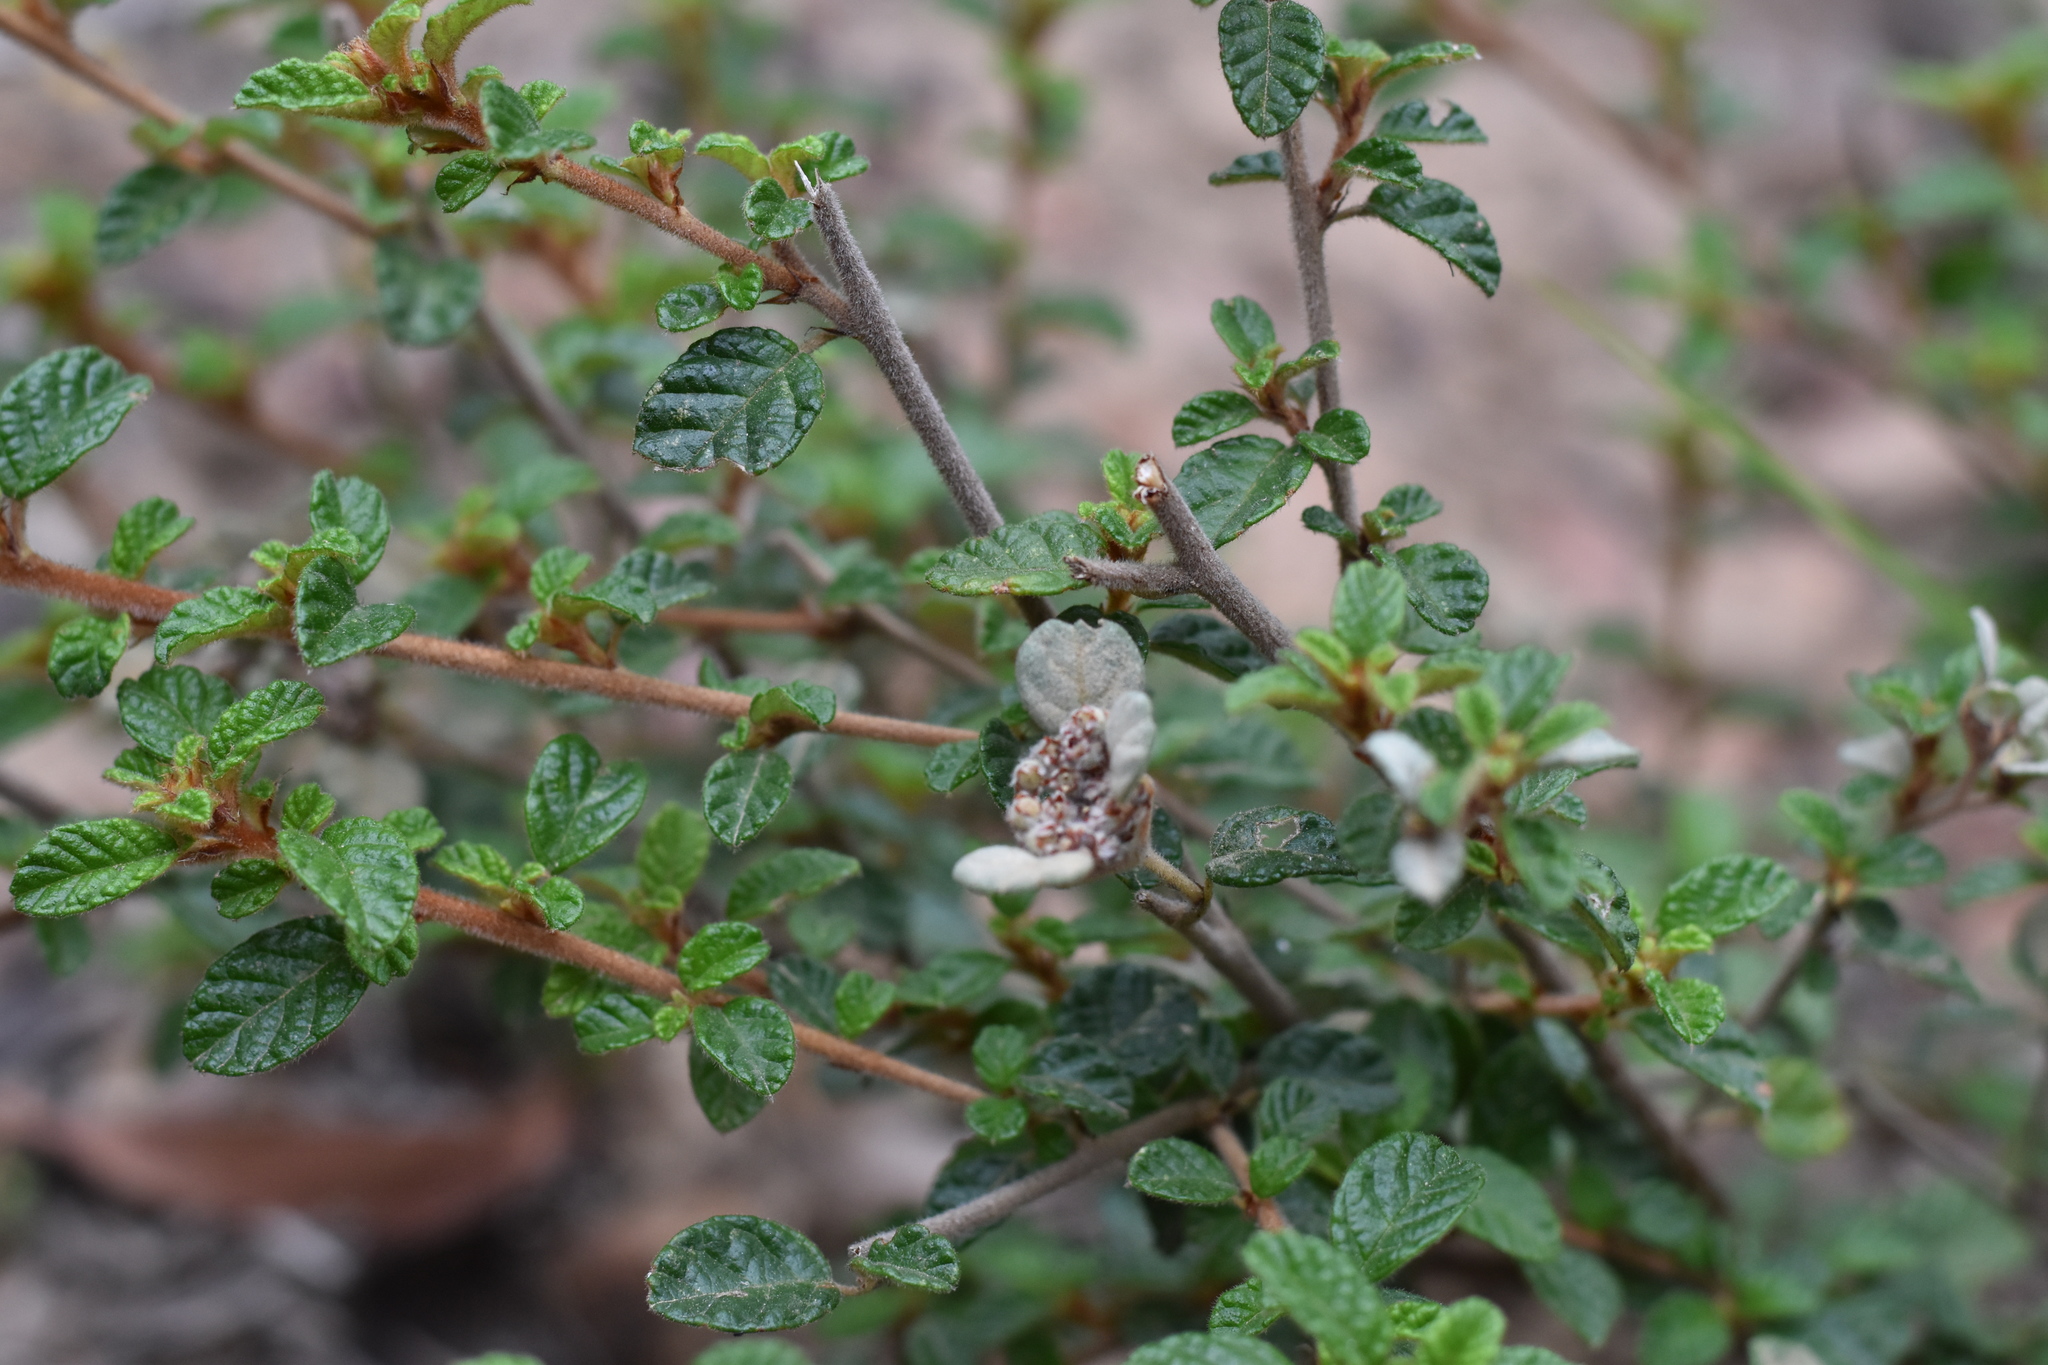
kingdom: Plantae
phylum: Tracheophyta
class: Magnoliopsida
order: Rosales
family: Rhamnaceae
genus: Spyridium
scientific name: Spyridium parvifolium
